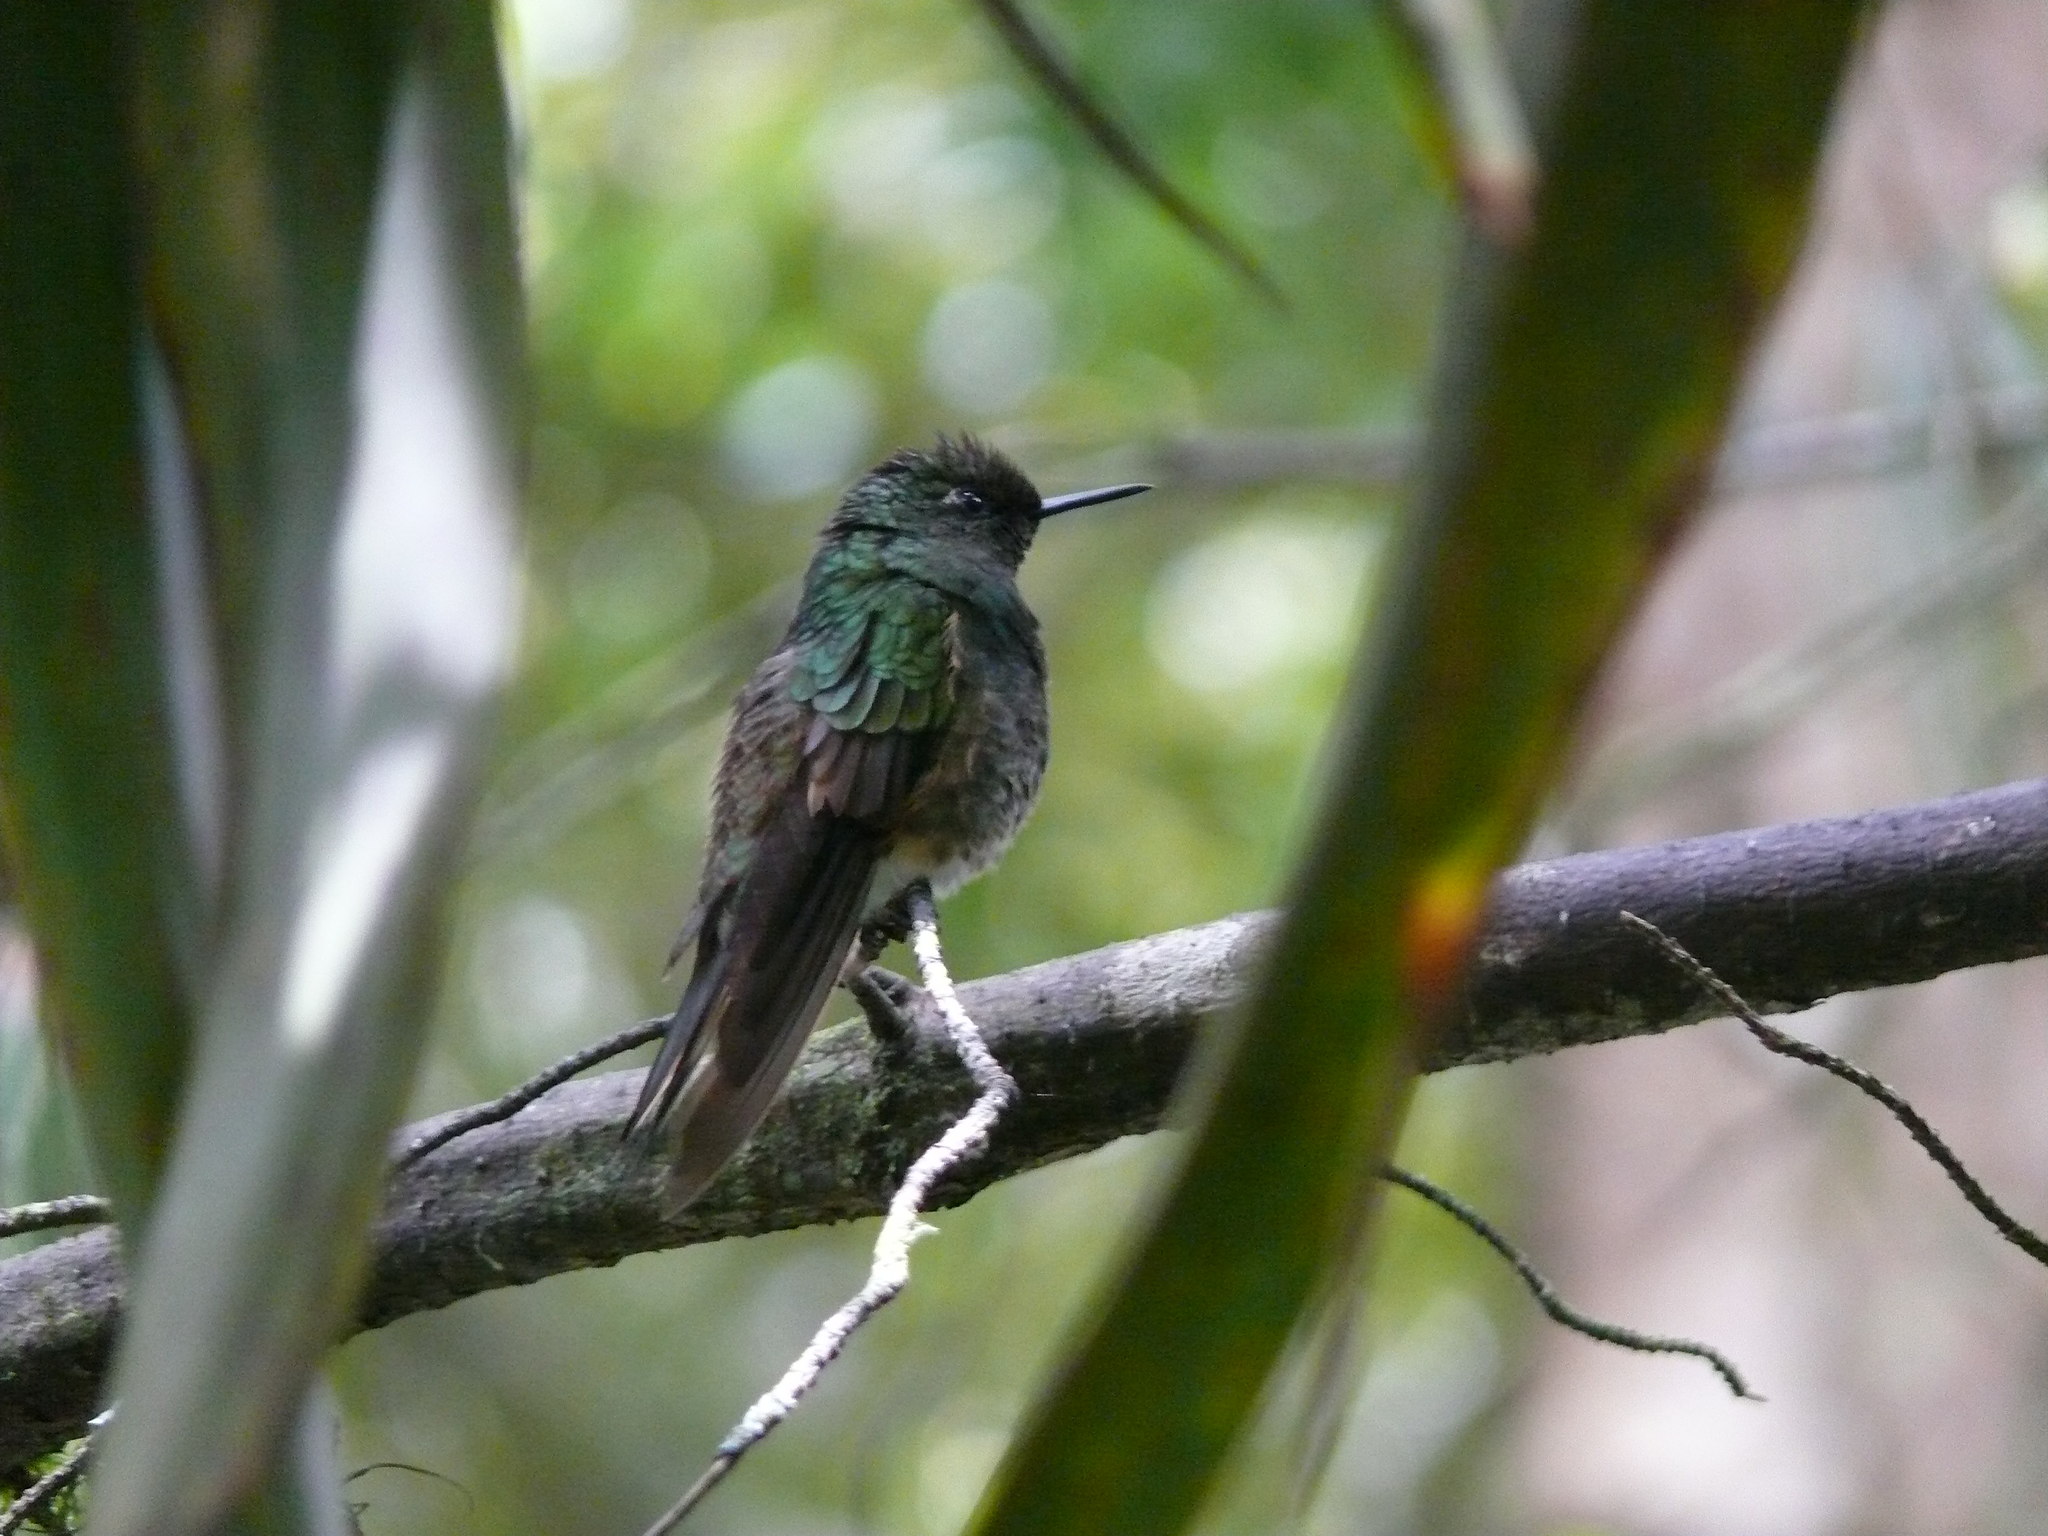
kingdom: Animalia
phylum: Chordata
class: Aves
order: Apodiformes
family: Trochilidae
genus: Boissonneaua
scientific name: Boissonneaua flavescens
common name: Buff-tailed coronet
